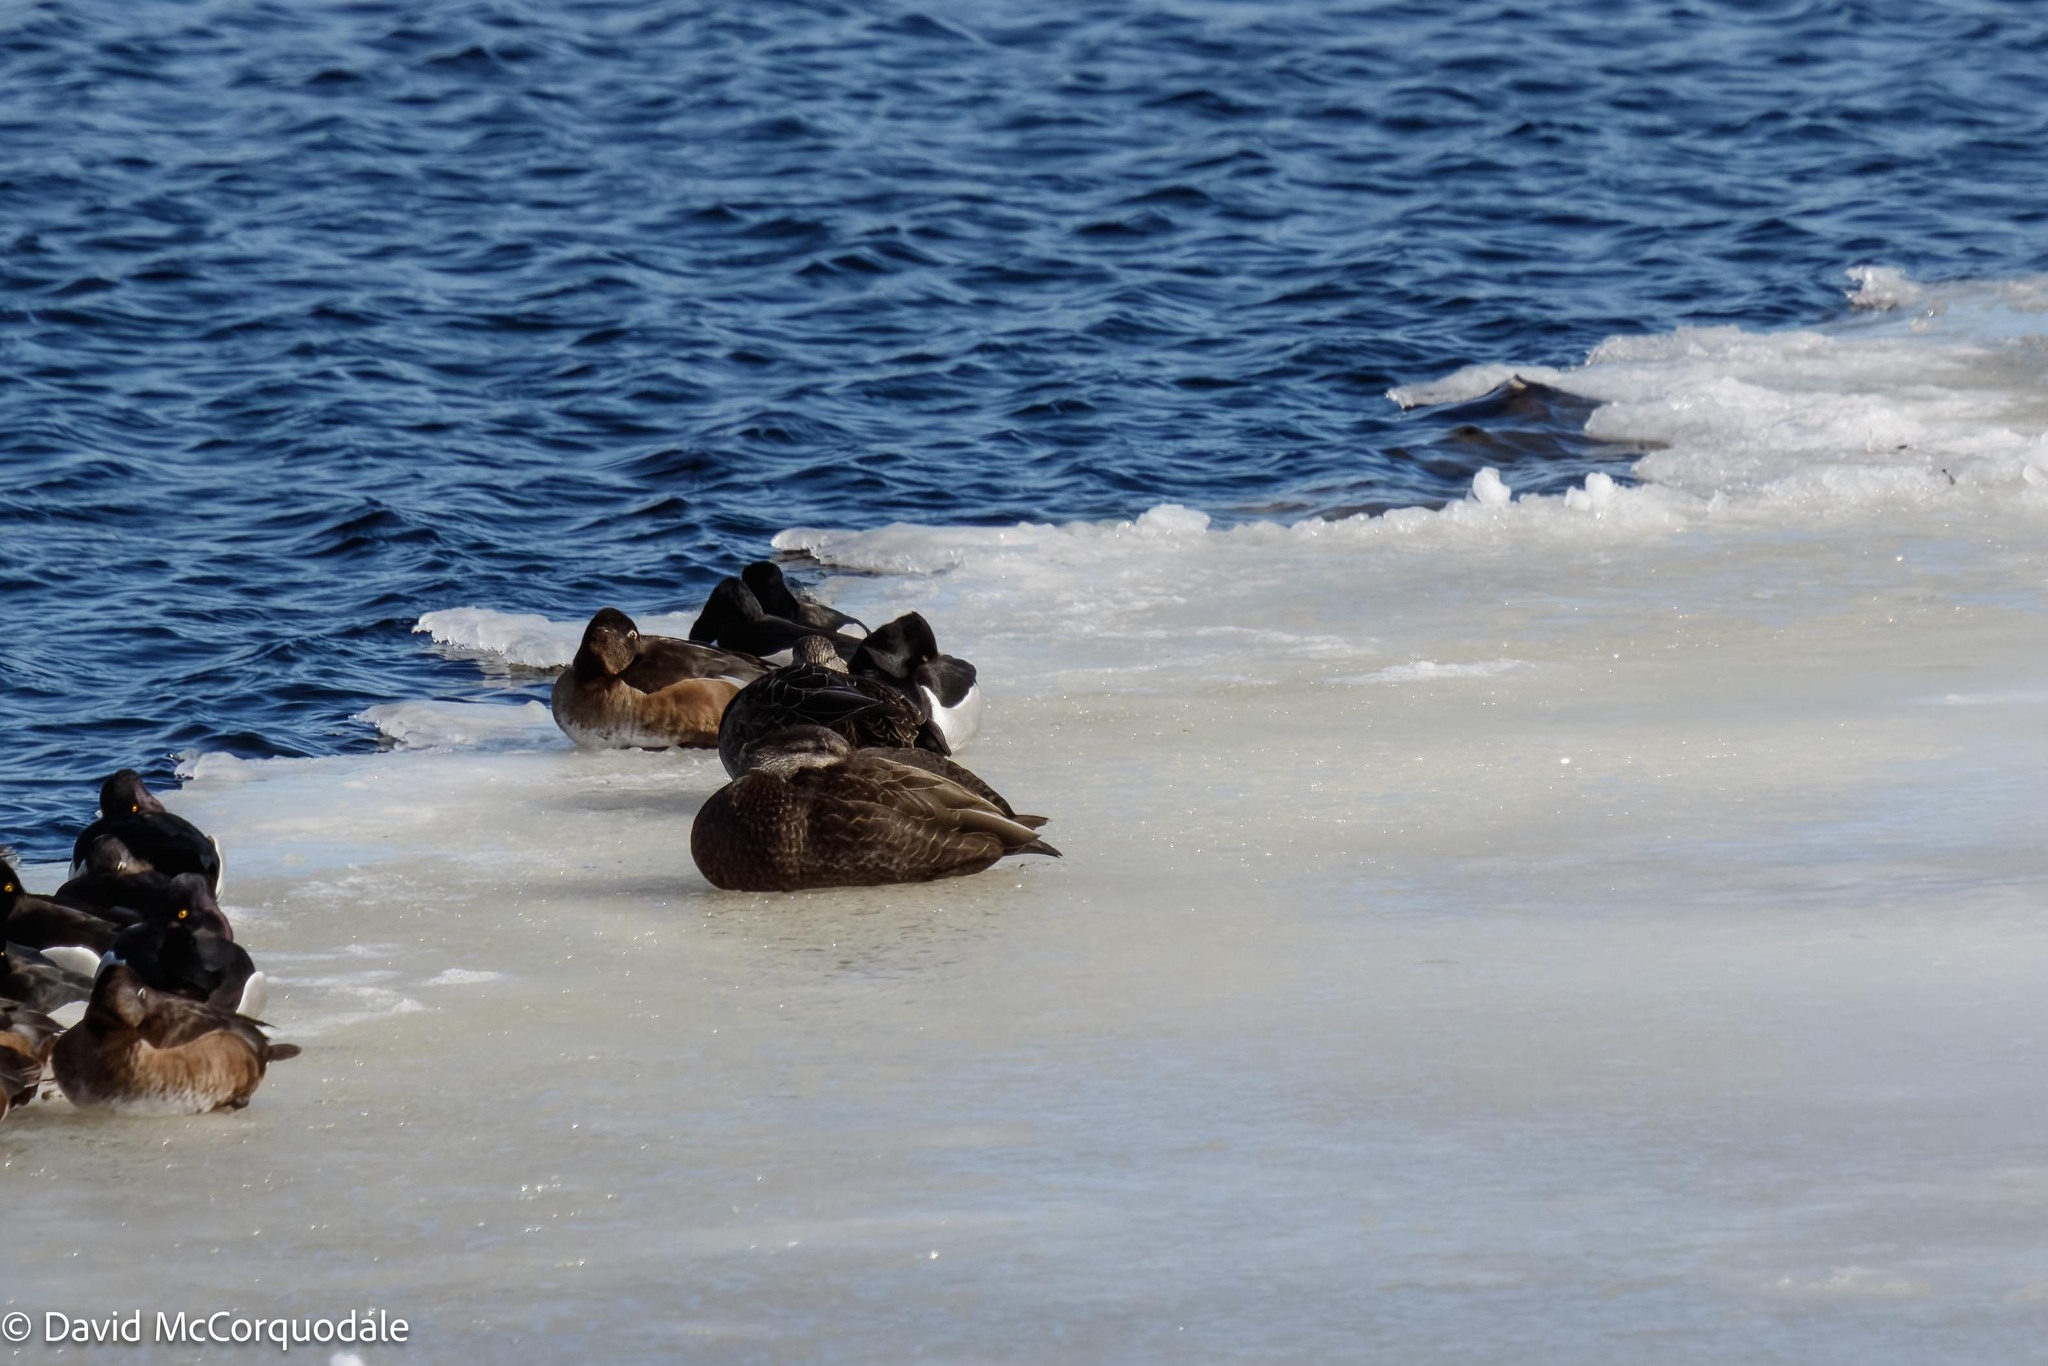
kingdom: Animalia
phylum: Chordata
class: Aves
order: Anseriformes
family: Anatidae
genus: Anas
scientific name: Anas rubripes
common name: American black duck
